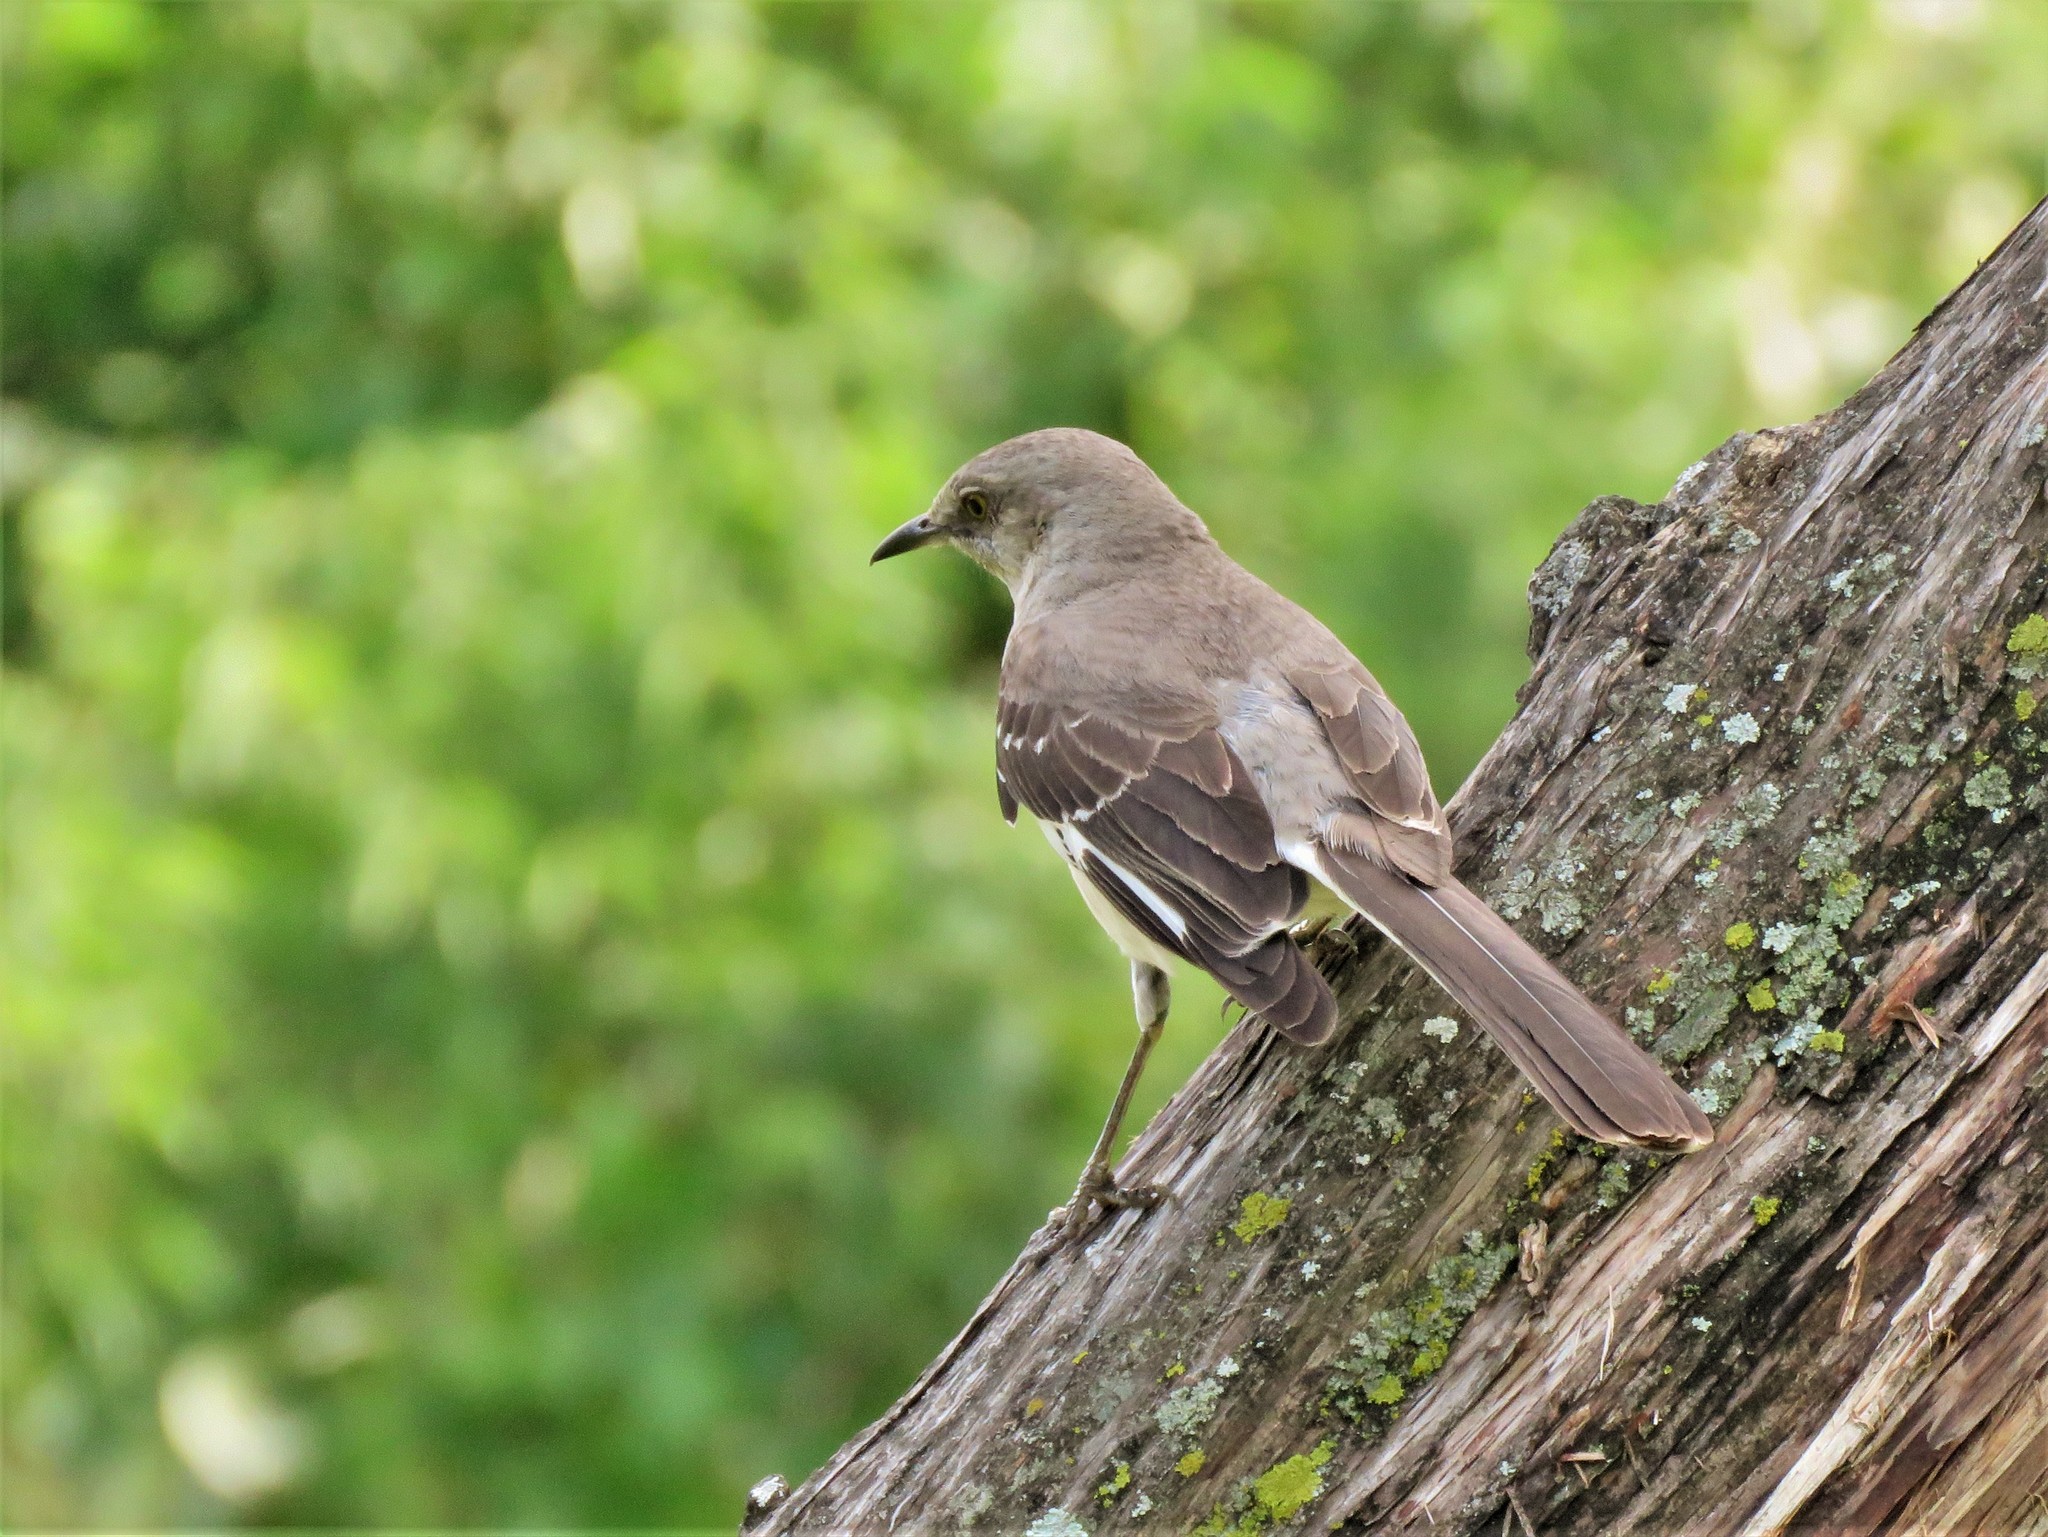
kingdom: Animalia
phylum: Chordata
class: Aves
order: Passeriformes
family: Mimidae
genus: Mimus
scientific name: Mimus polyglottos
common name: Northern mockingbird
